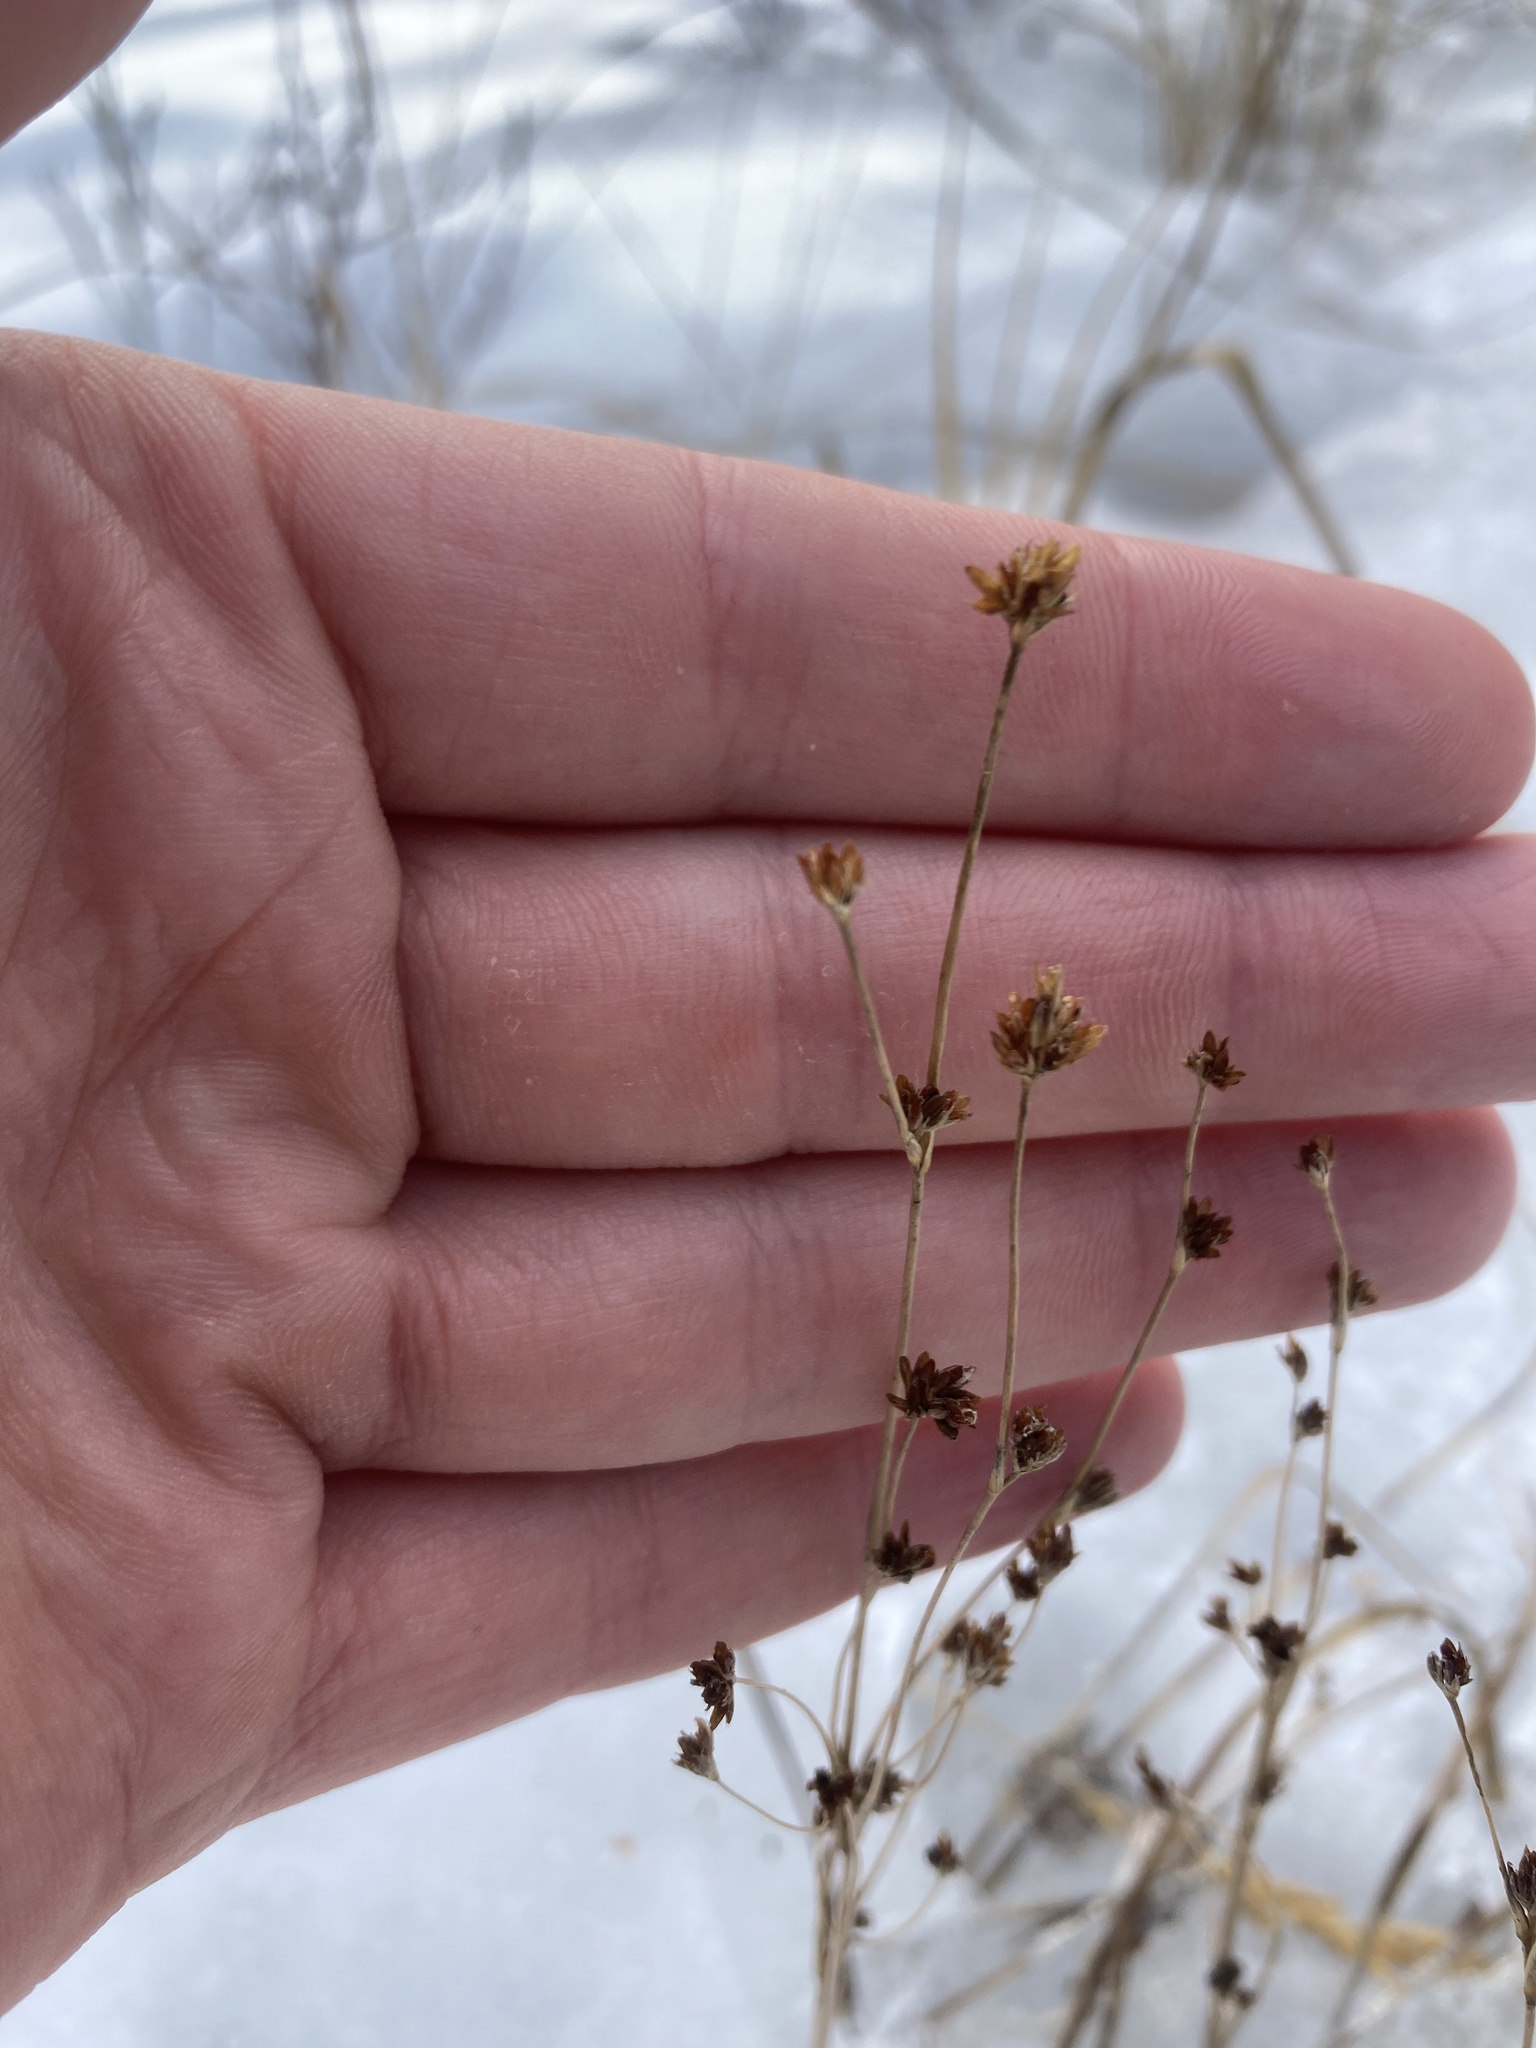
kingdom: Plantae
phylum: Tracheophyta
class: Liliopsida
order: Poales
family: Juncaceae
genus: Juncus
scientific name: Juncus alpinoarticulatus
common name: Alpine rush
